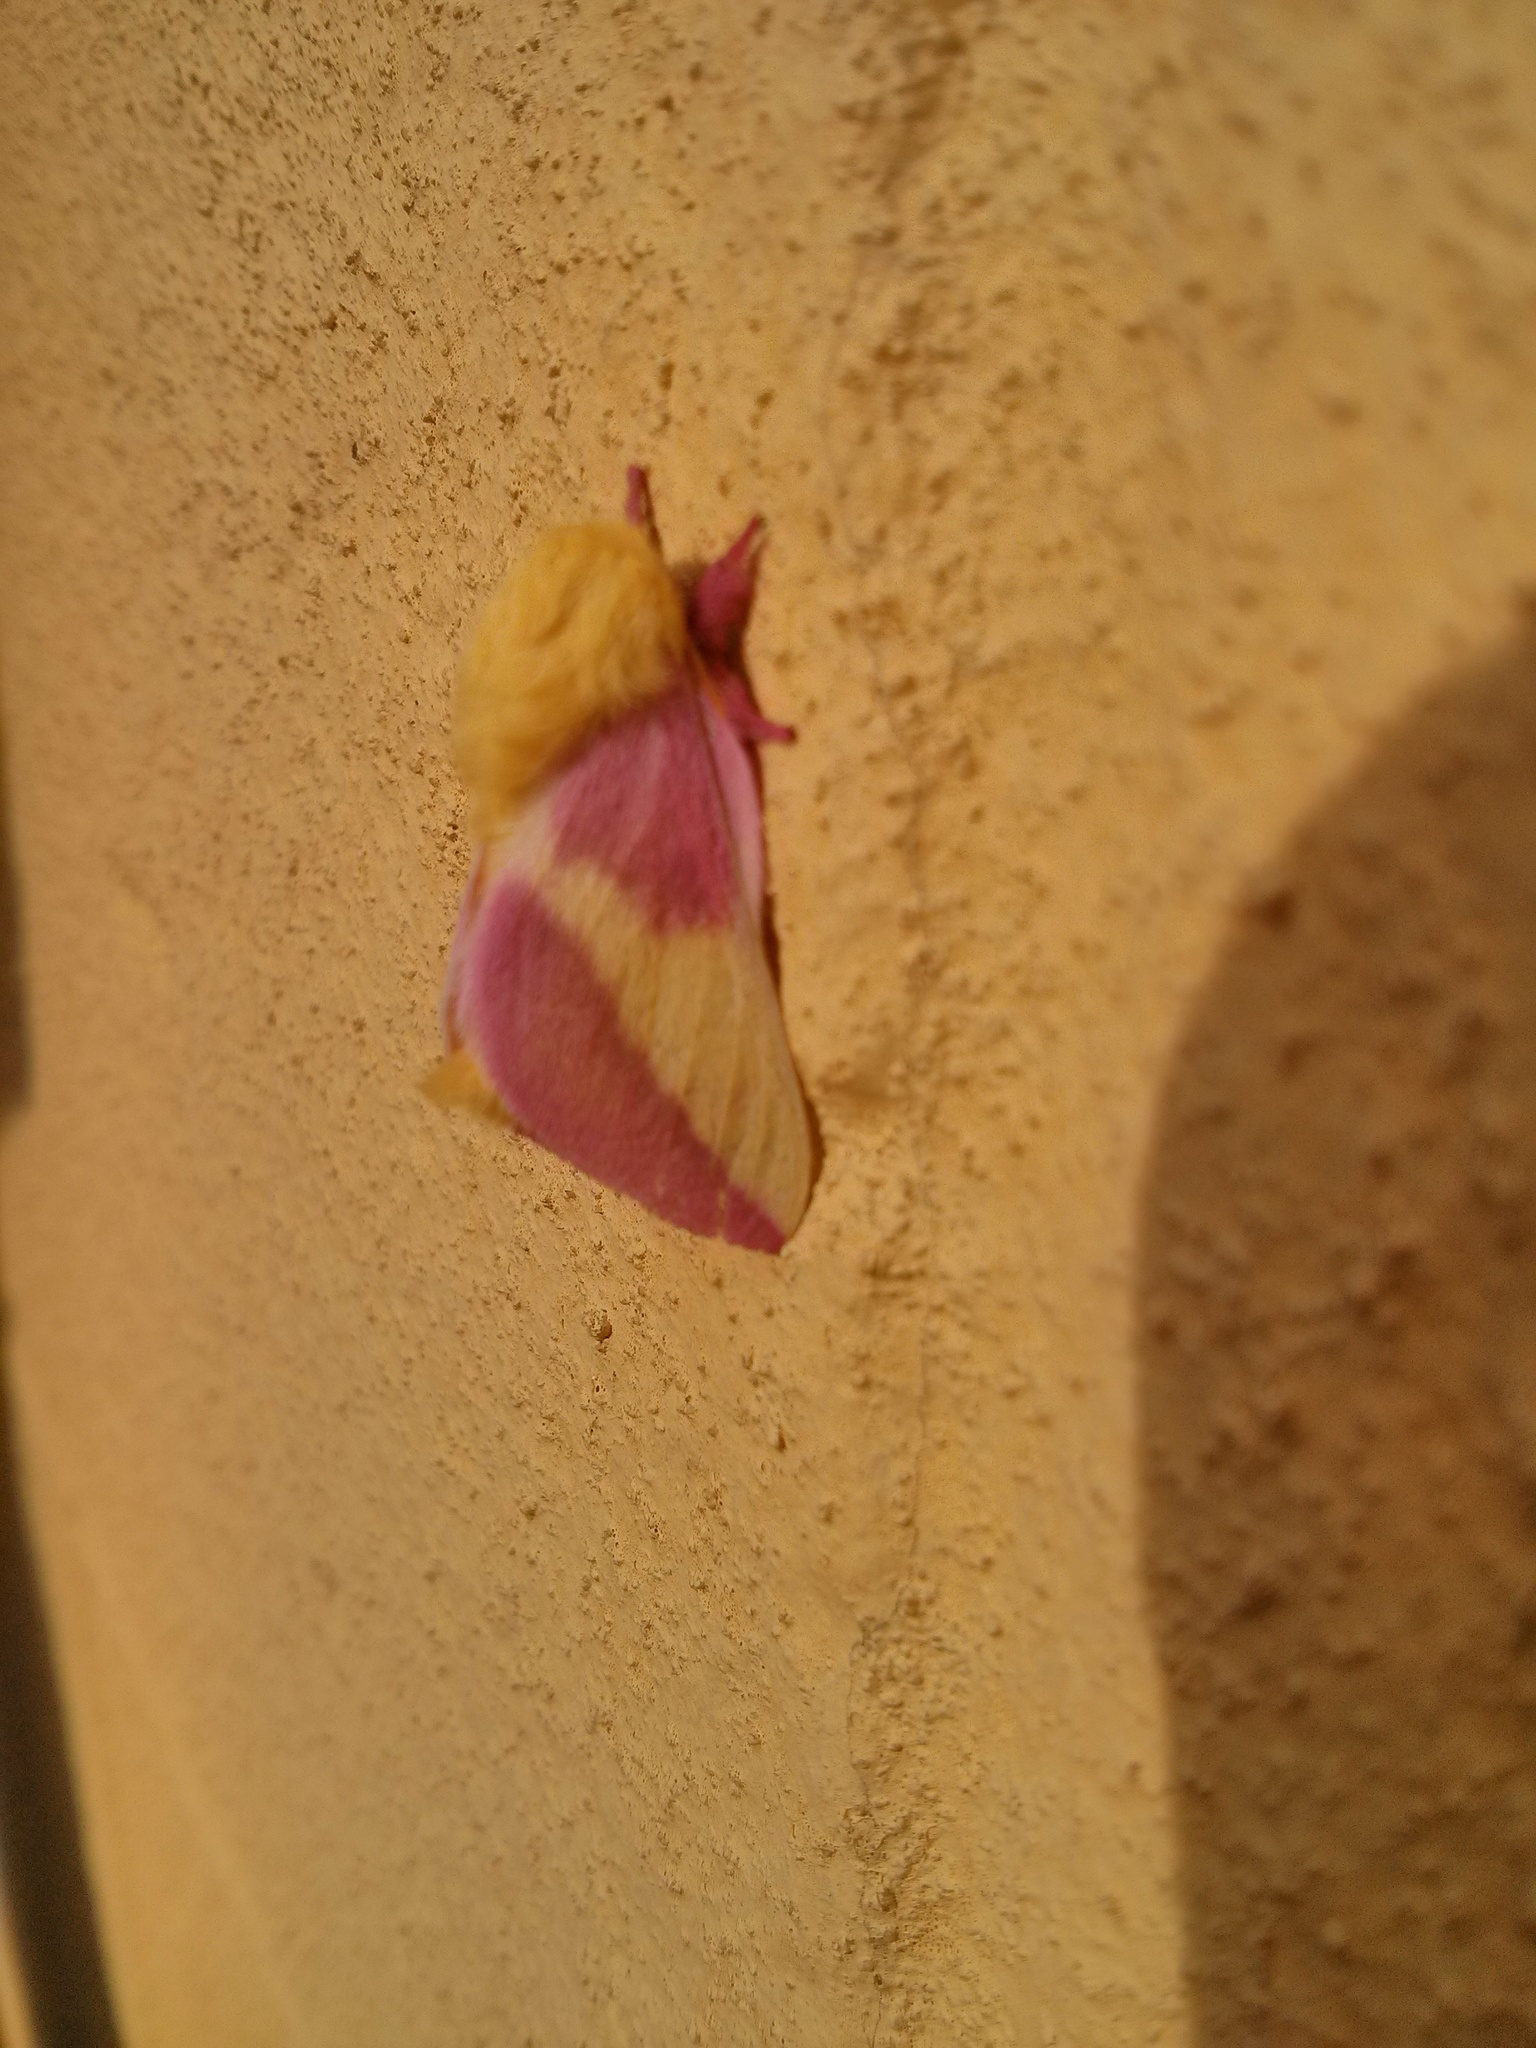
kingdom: Animalia
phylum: Arthropoda
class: Insecta
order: Lepidoptera
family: Saturniidae
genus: Dryocampa
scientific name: Dryocampa rubicunda
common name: Rosy maple moth
